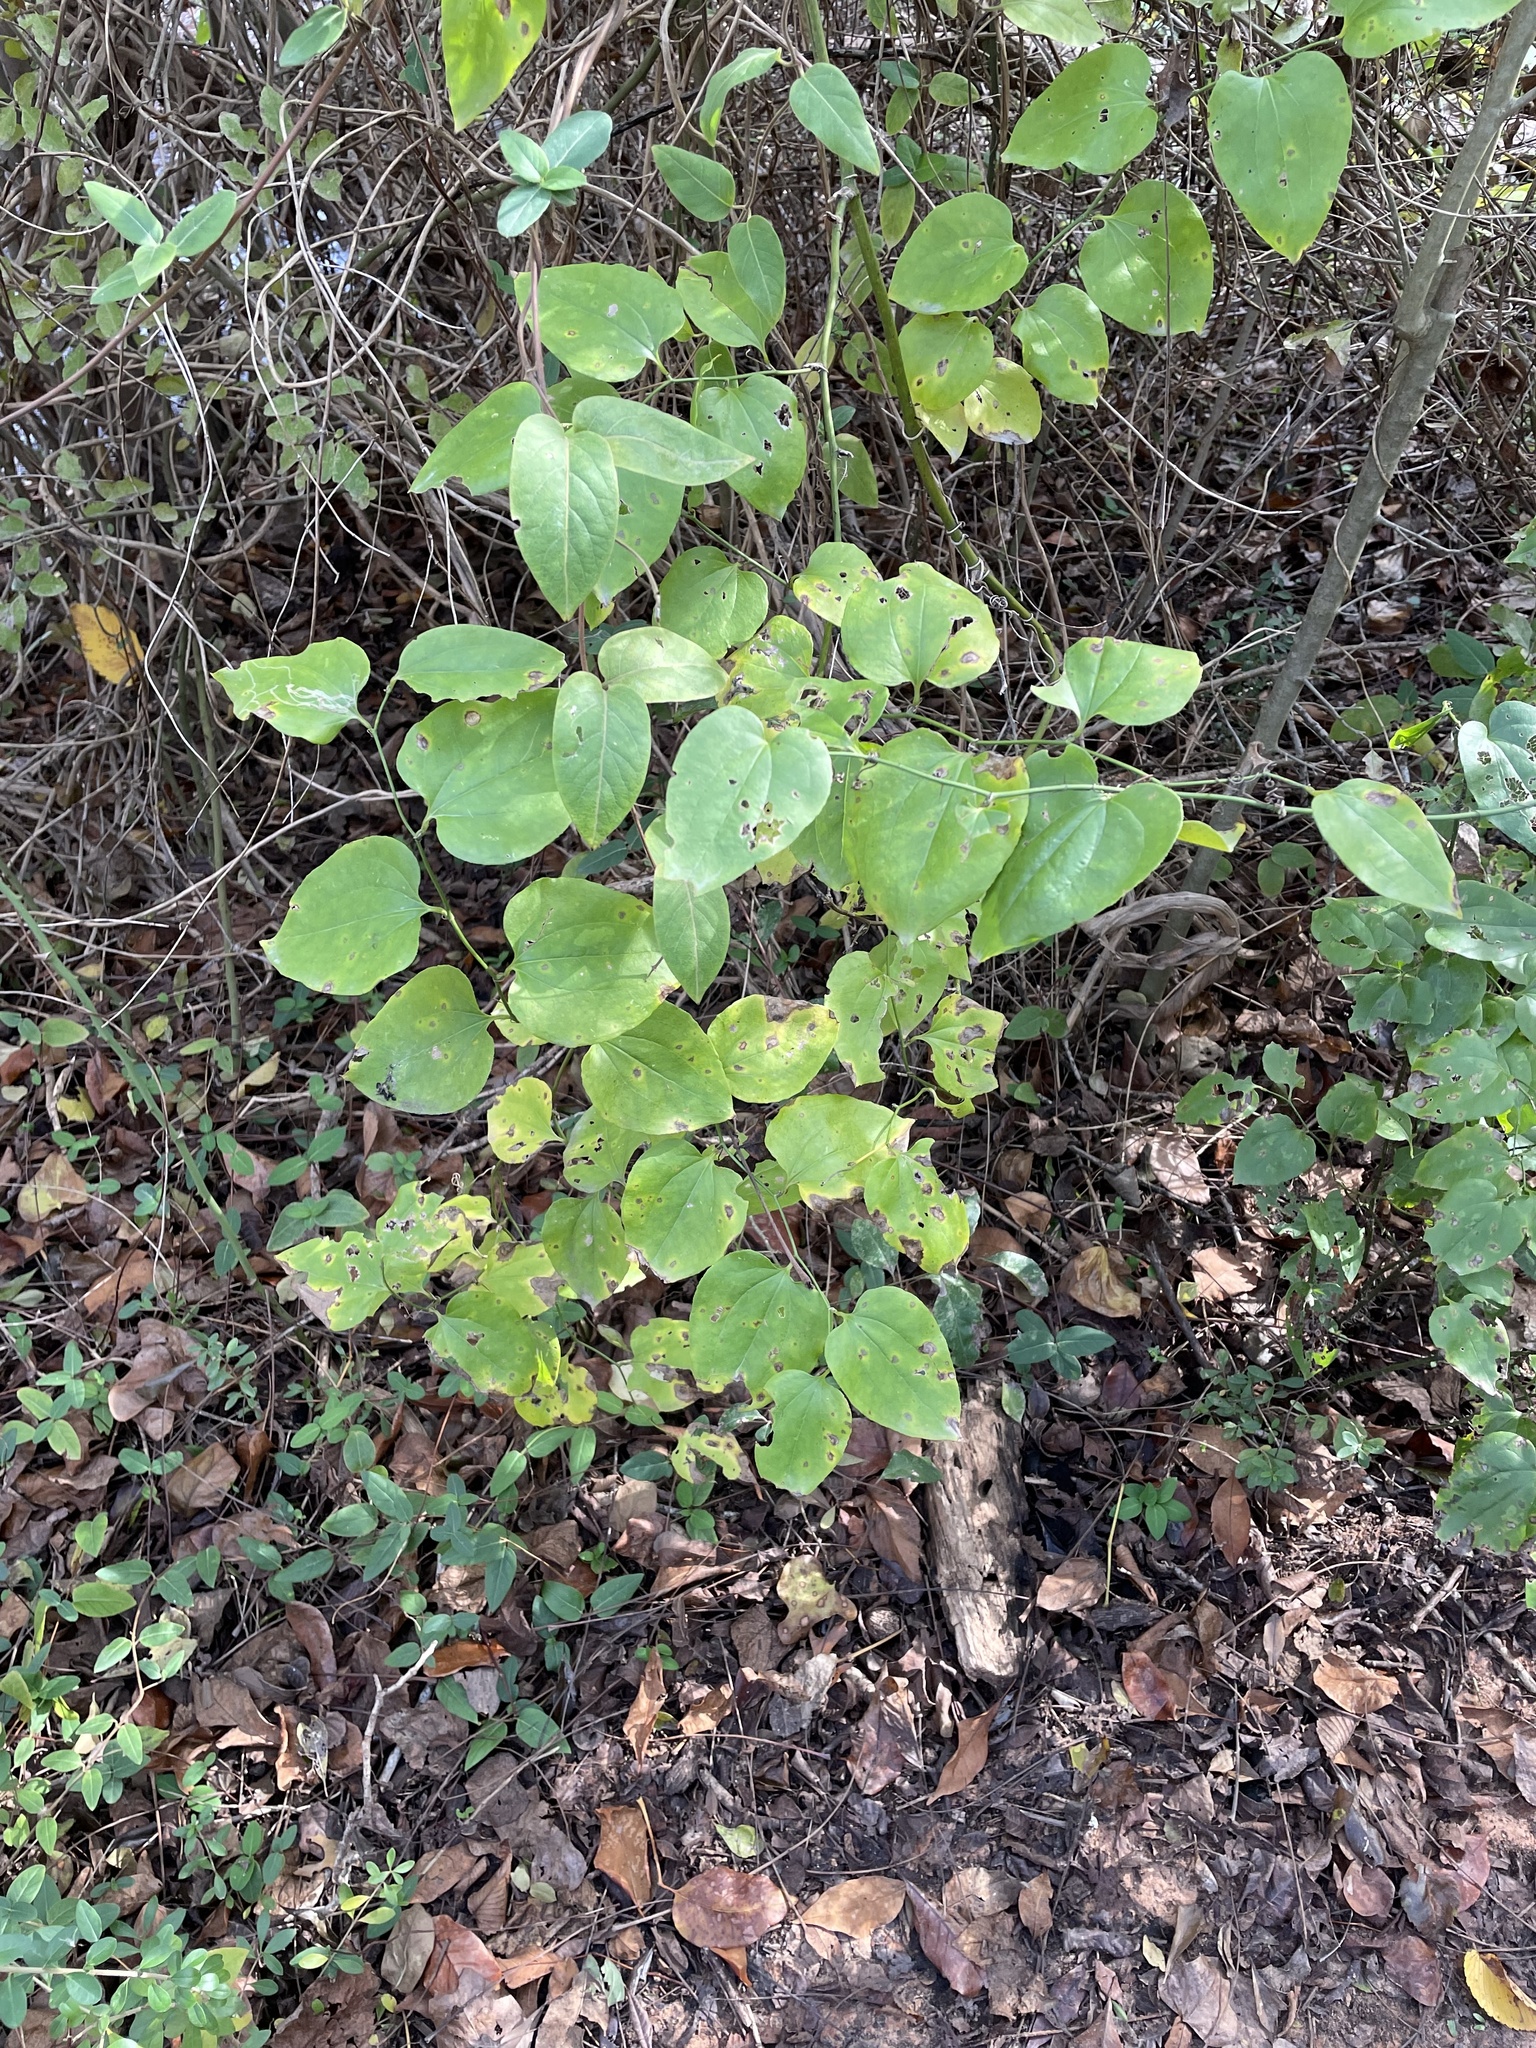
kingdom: Plantae
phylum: Tracheophyta
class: Liliopsida
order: Liliales
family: Smilacaceae
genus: Smilax
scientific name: Smilax tamnoides
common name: Hellfetter
